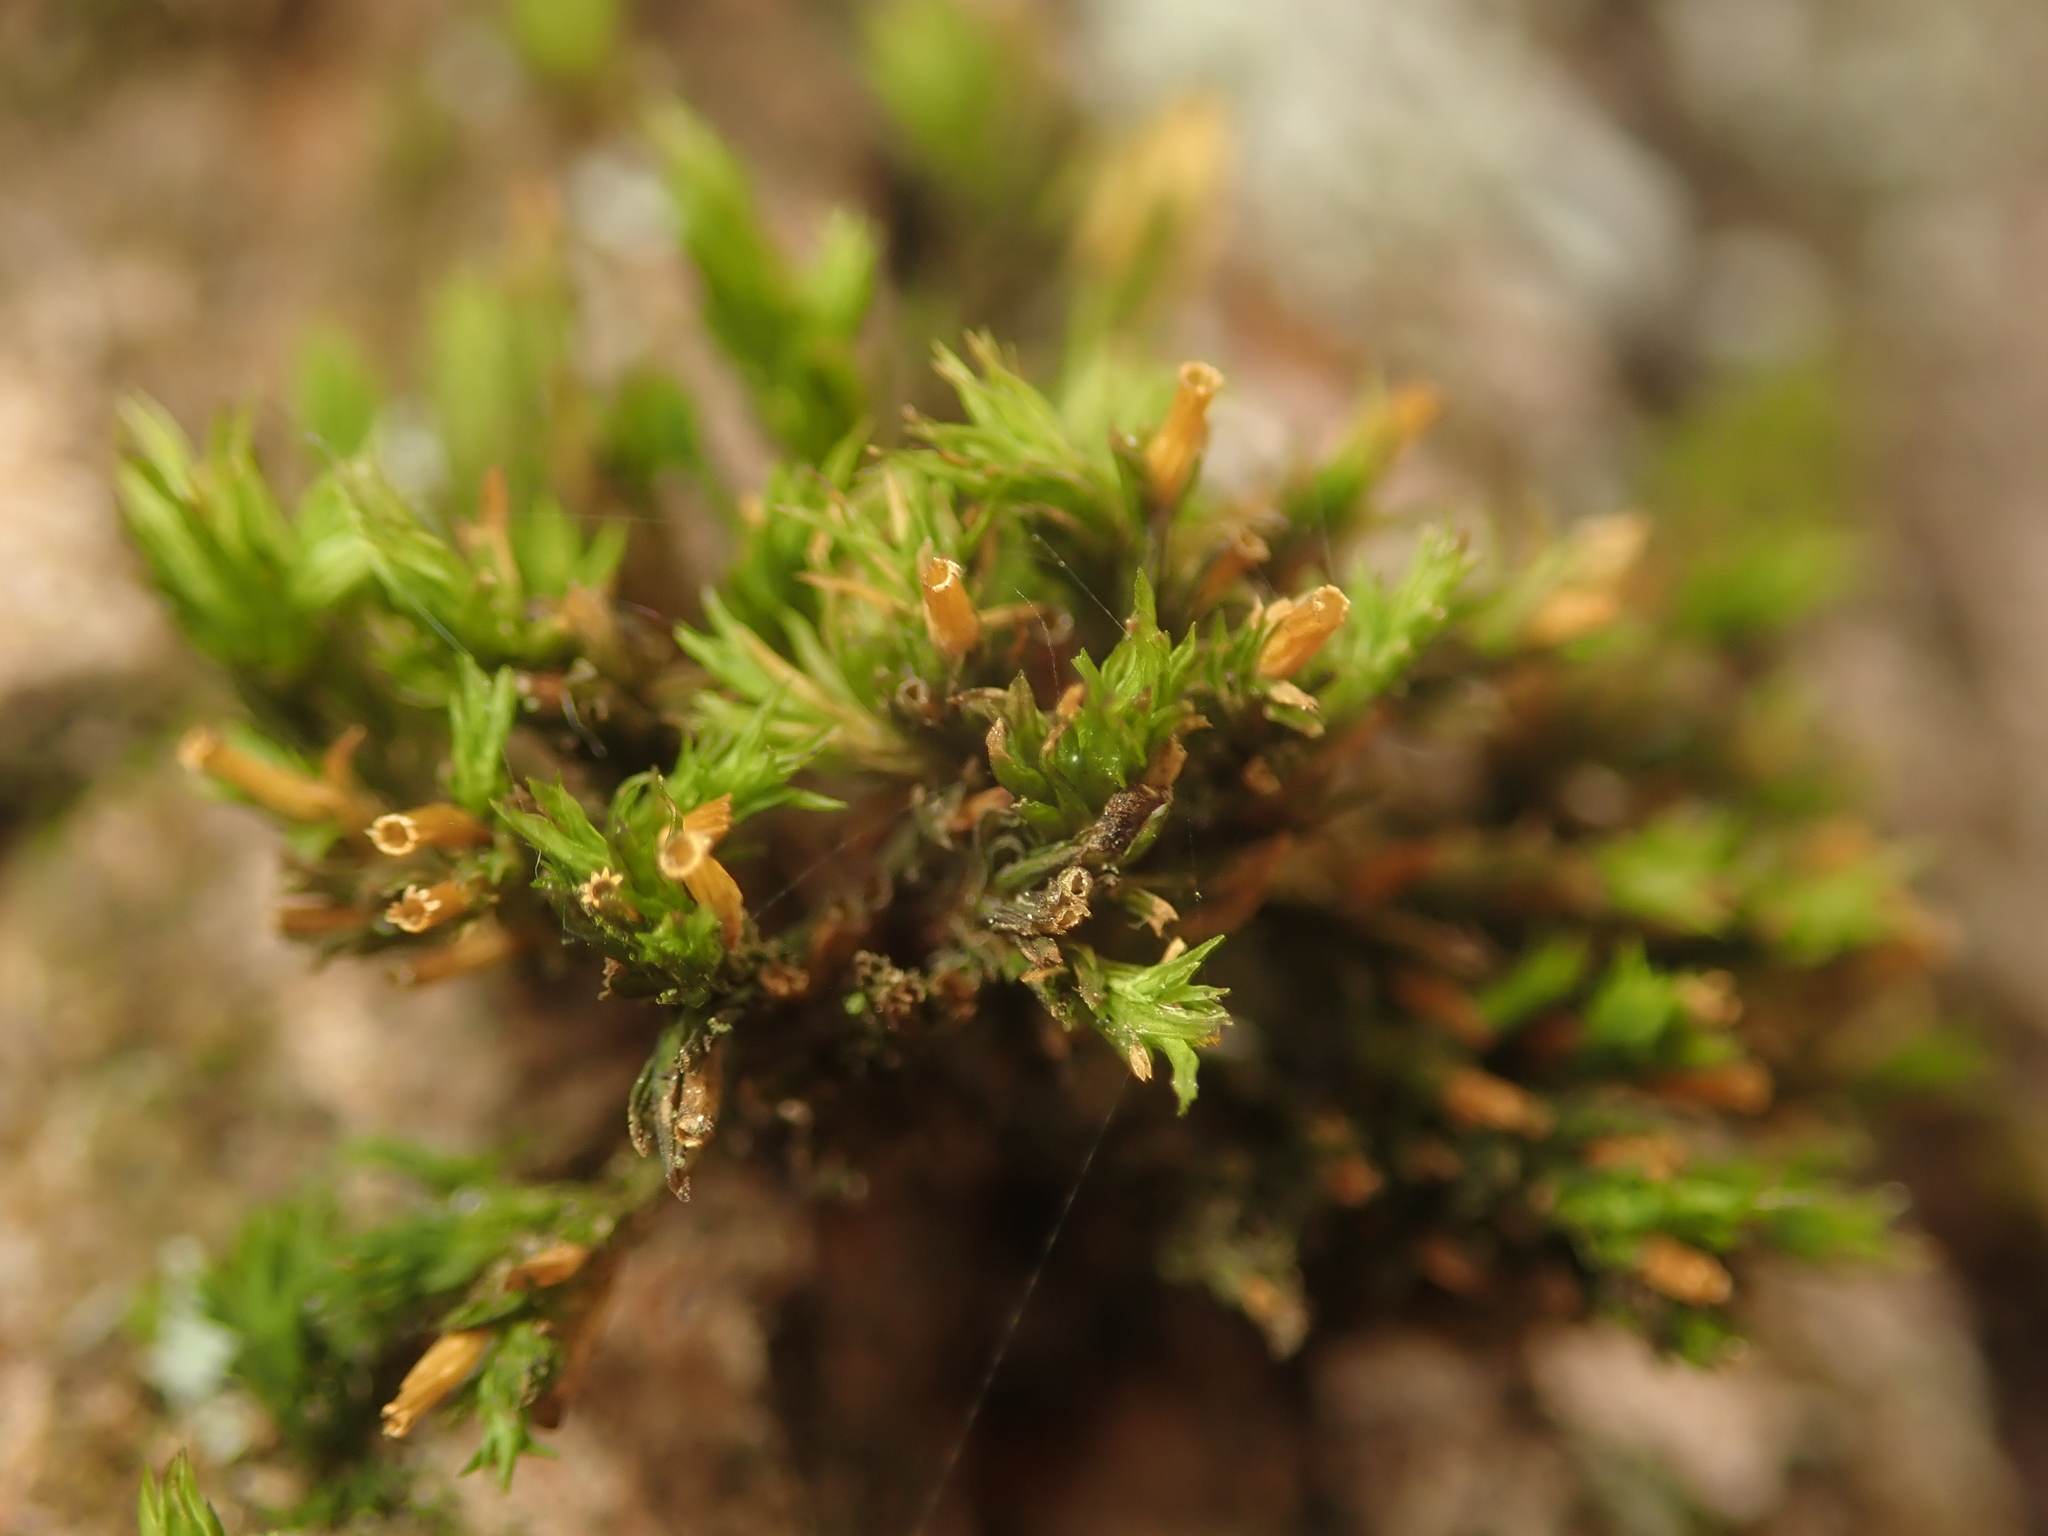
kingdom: Plantae
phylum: Bryophyta
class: Bryopsida
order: Orthotrichales
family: Orthotrichaceae
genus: Lewinskya
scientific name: Lewinskya affinis
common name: Wood bristle-moss
